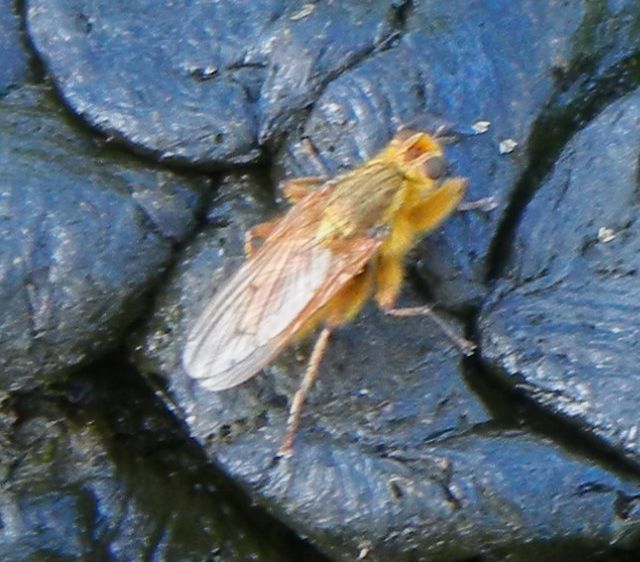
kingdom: Animalia
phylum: Arthropoda
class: Insecta
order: Diptera
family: Scathophagidae
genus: Scathophaga
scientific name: Scathophaga stercoraria
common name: Yellow dung fly
